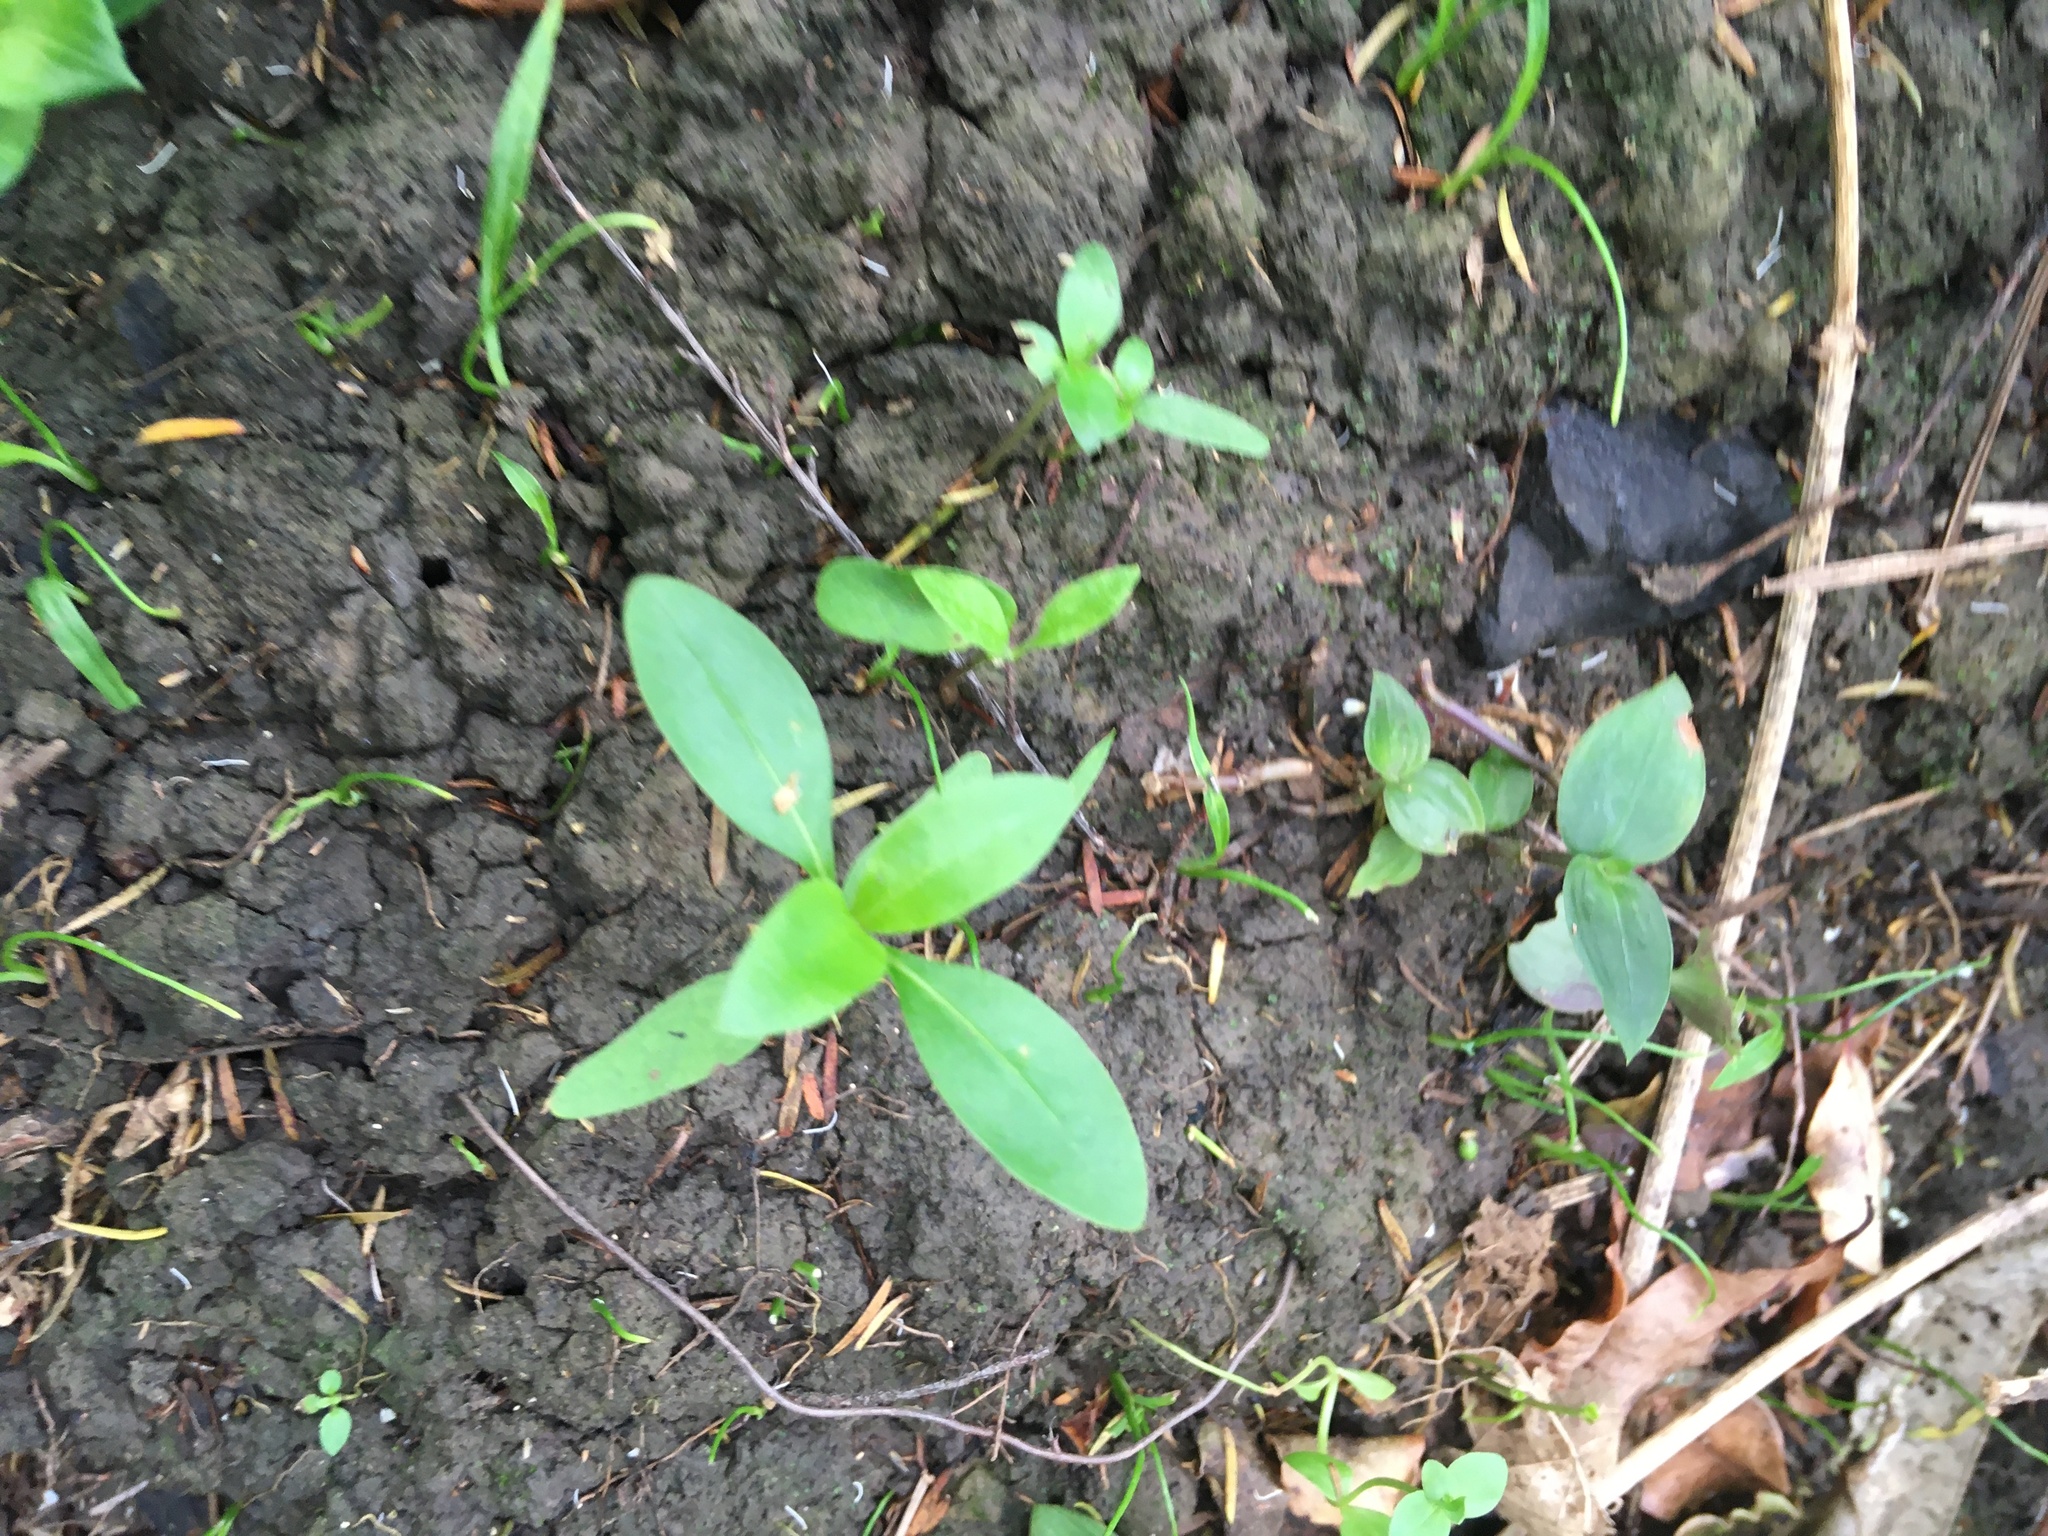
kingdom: Plantae
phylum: Tracheophyta
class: Magnoliopsida
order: Gentianales
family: Rubiaceae
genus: Coprosma
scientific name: Coprosma robusta
